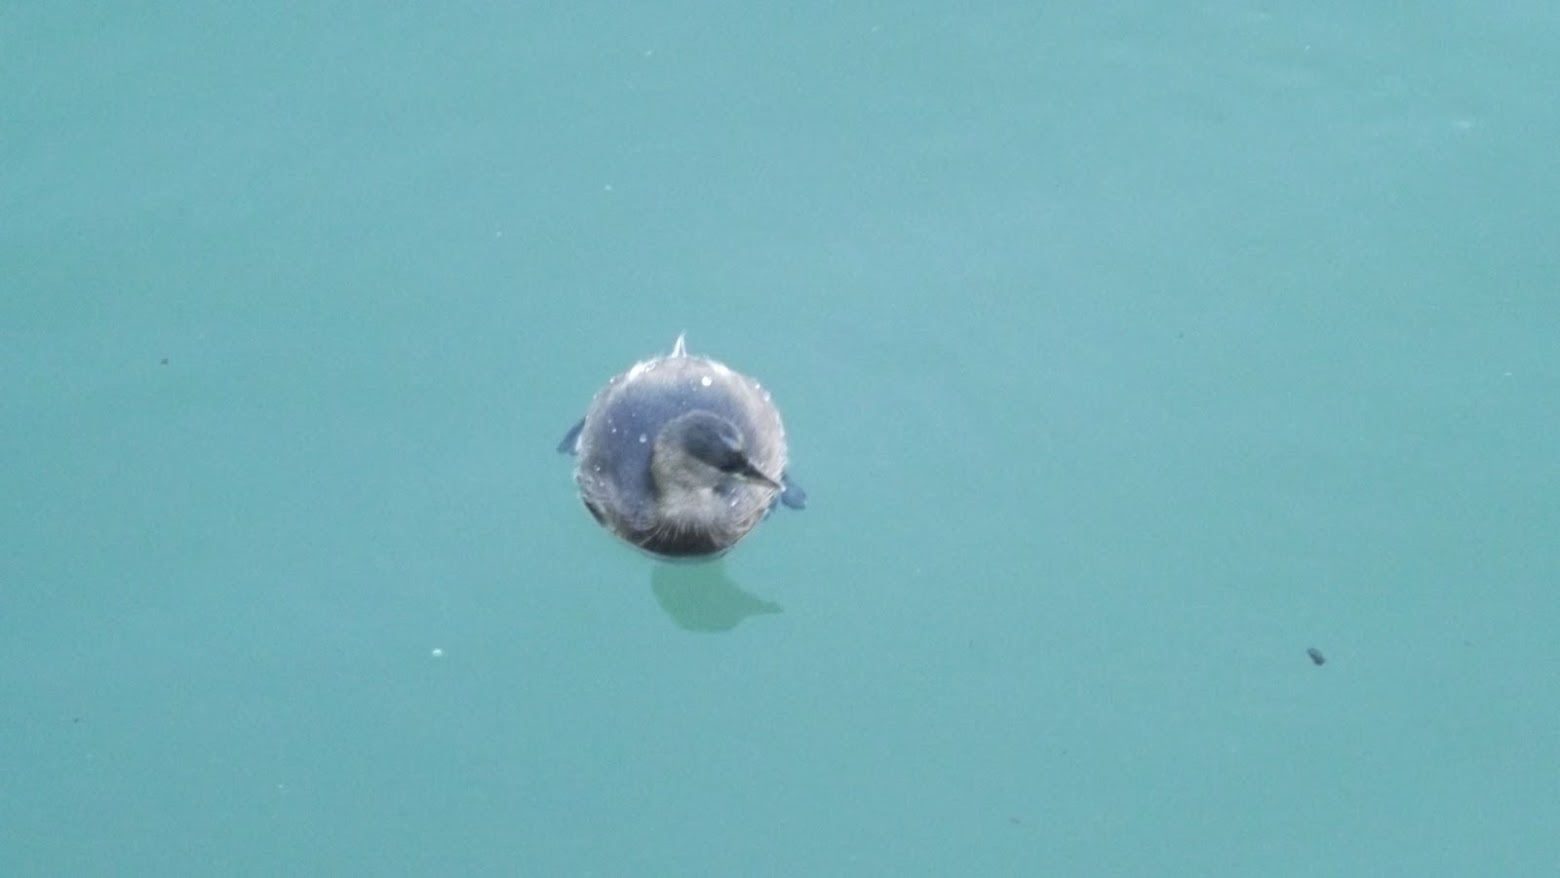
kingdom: Animalia
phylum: Chordata
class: Aves
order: Podicipediformes
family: Podicipedidae
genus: Tachybaptus
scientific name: Tachybaptus ruficollis
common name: Little grebe
